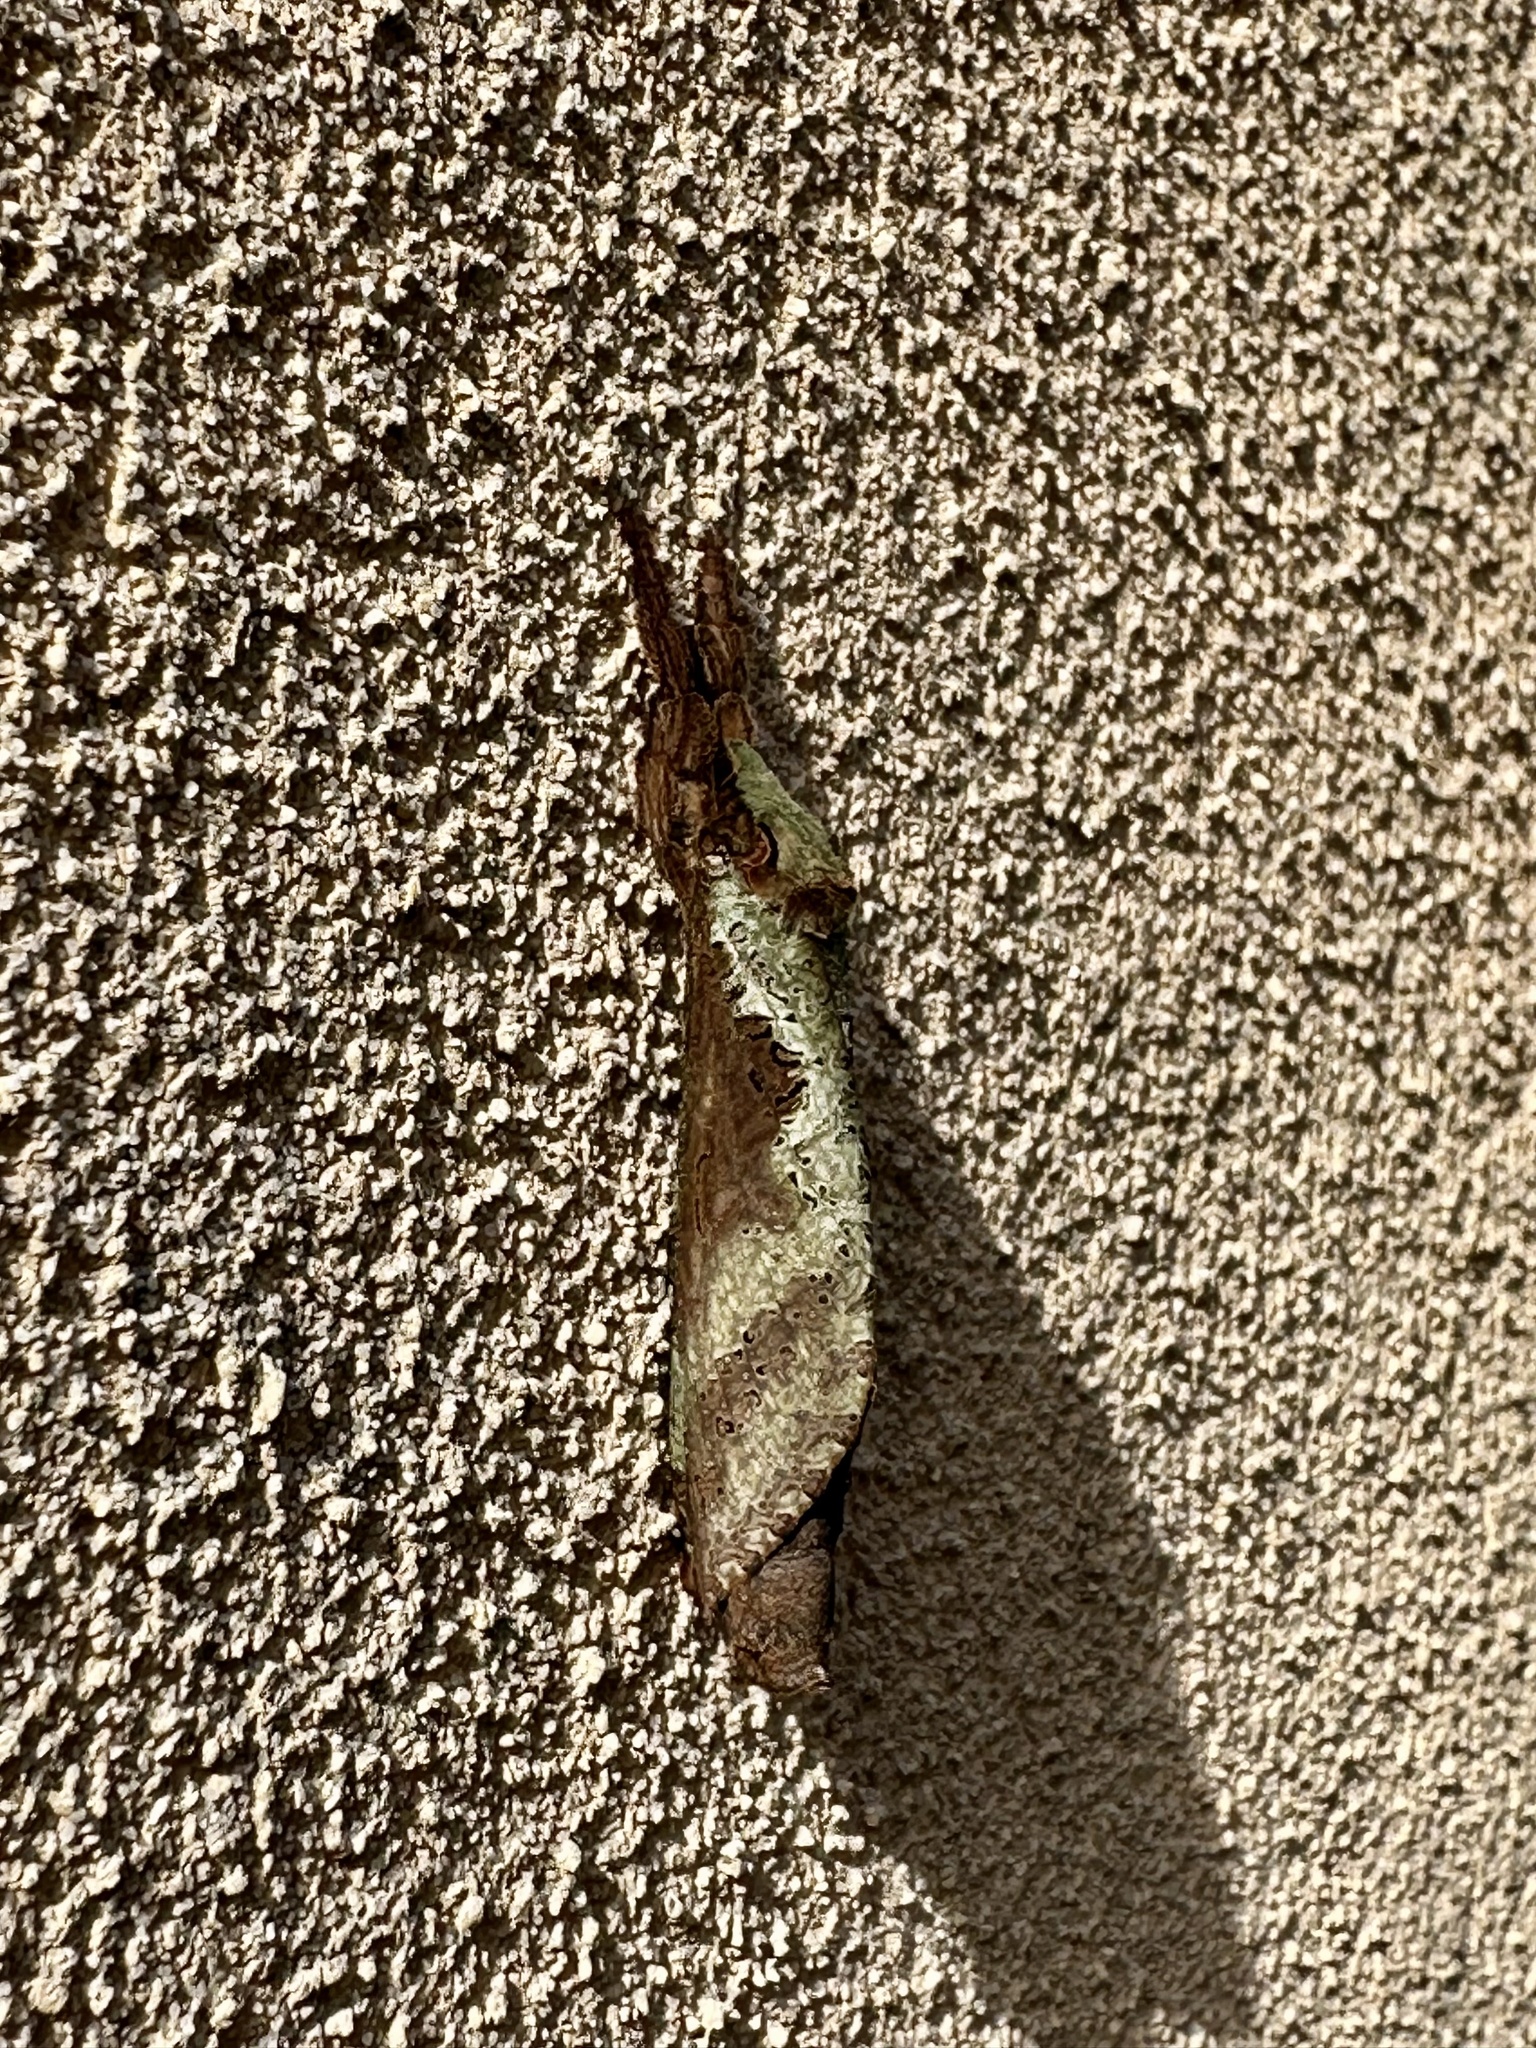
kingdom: Animalia
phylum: Arthropoda
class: Insecta
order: Lepidoptera
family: Hepialidae
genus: Endoclita
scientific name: Endoclita excrescens
